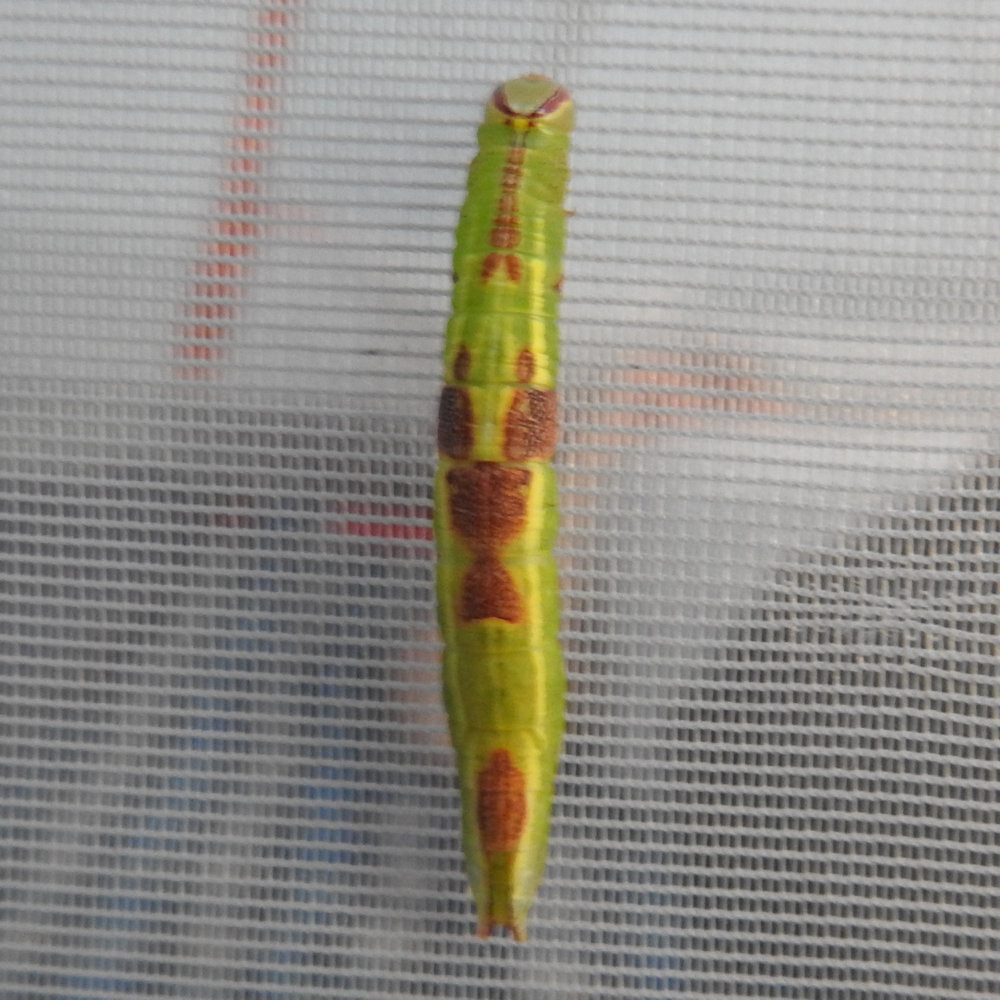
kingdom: Animalia
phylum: Arthropoda
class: Insecta
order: Lepidoptera
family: Notodontidae
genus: Disphragis
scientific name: Disphragis Cecrita guttivitta
